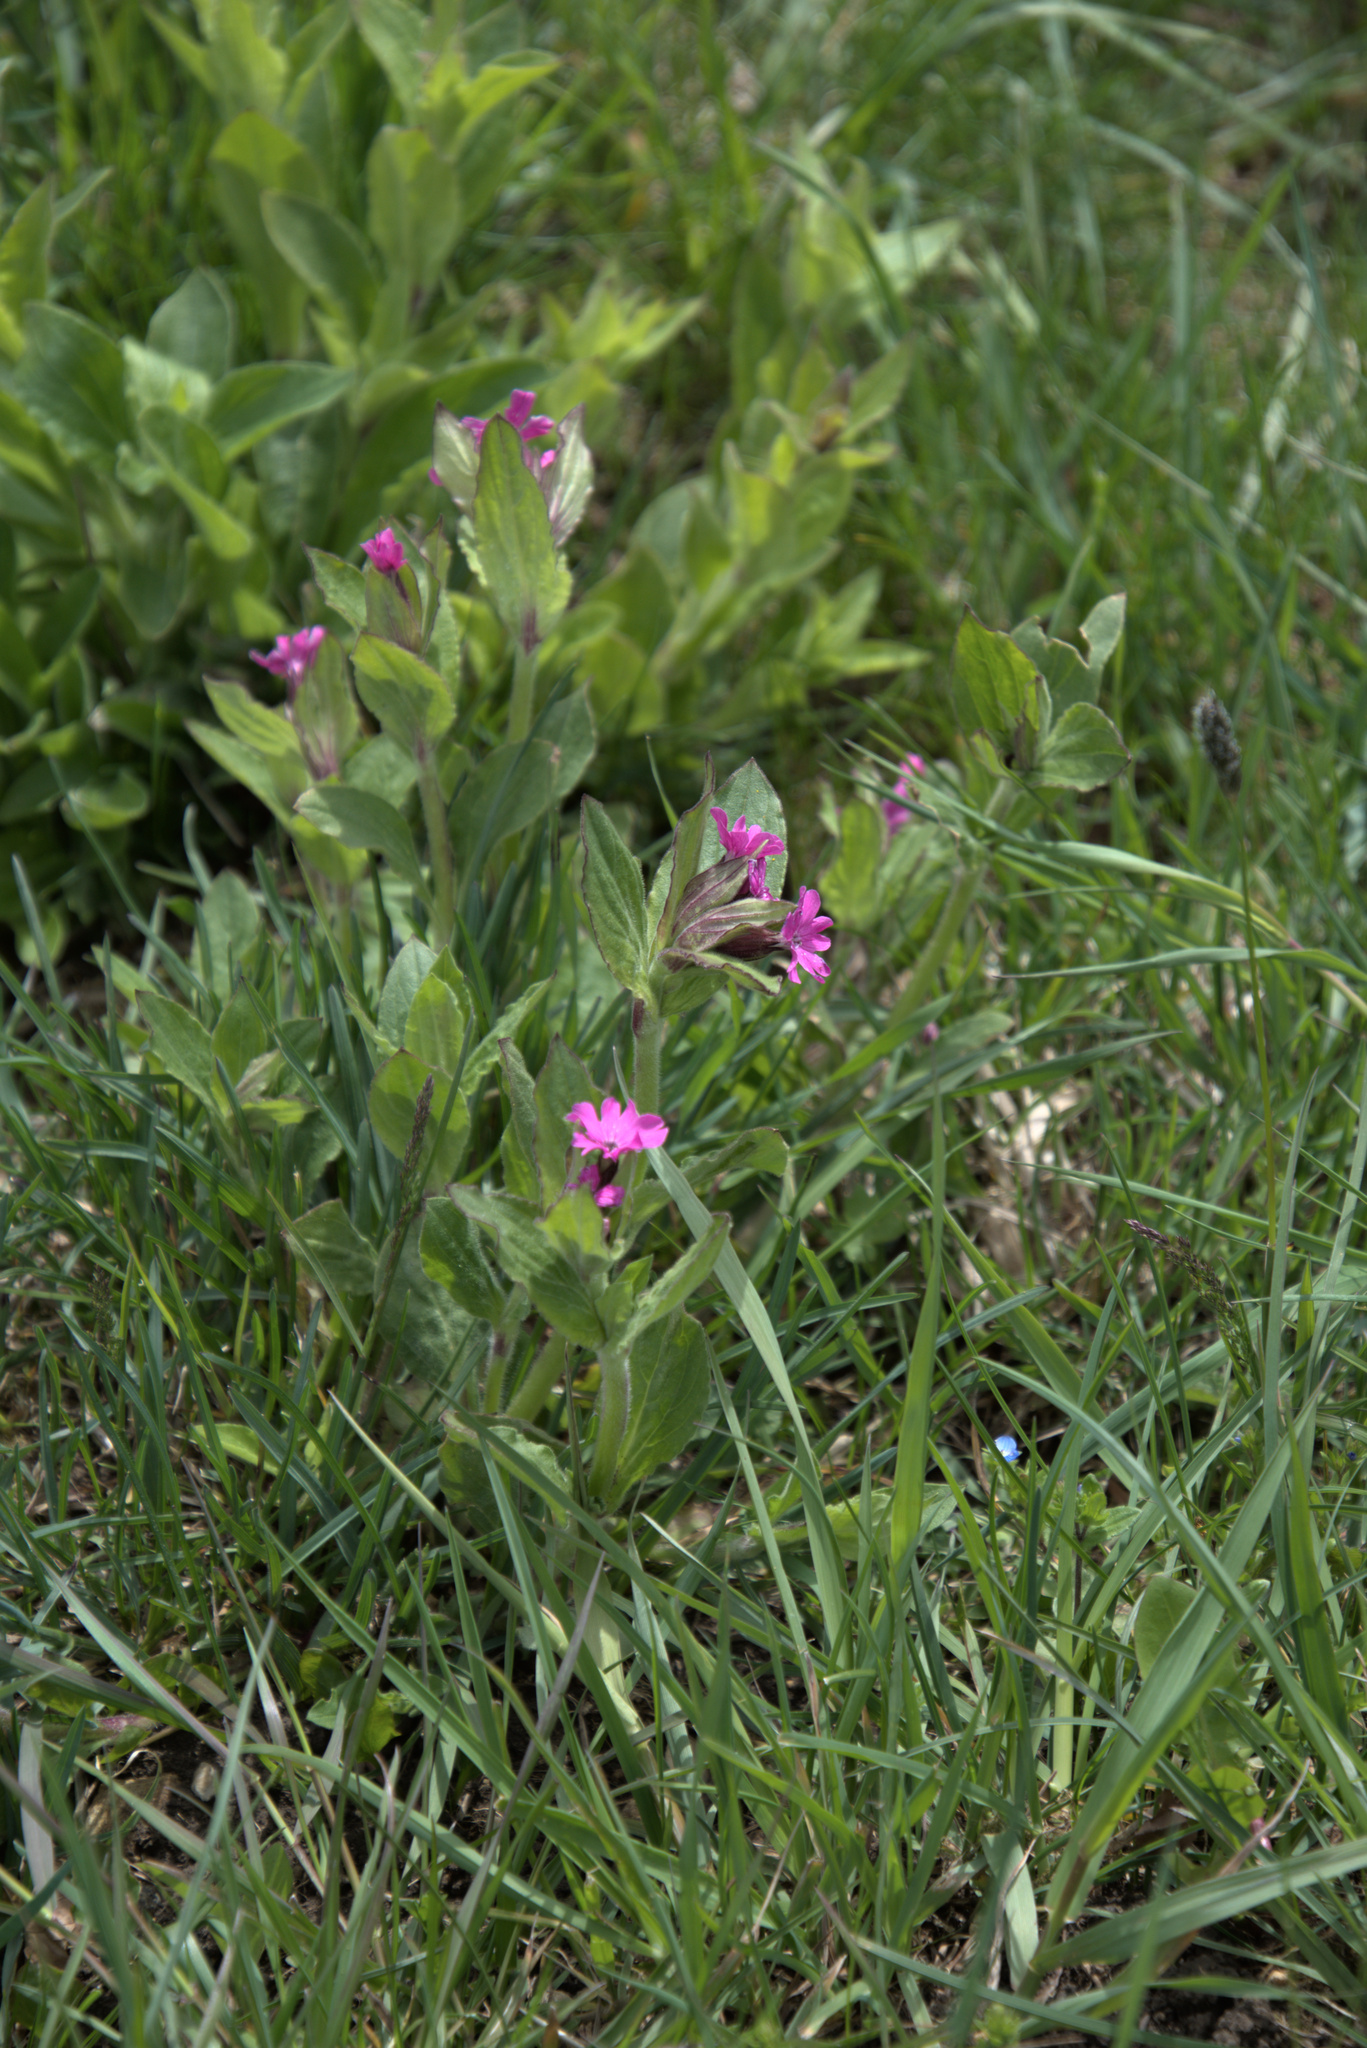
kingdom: Plantae
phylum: Tracheophyta
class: Magnoliopsida
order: Caryophyllales
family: Caryophyllaceae
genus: Silene
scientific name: Silene dioica
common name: Red campion
